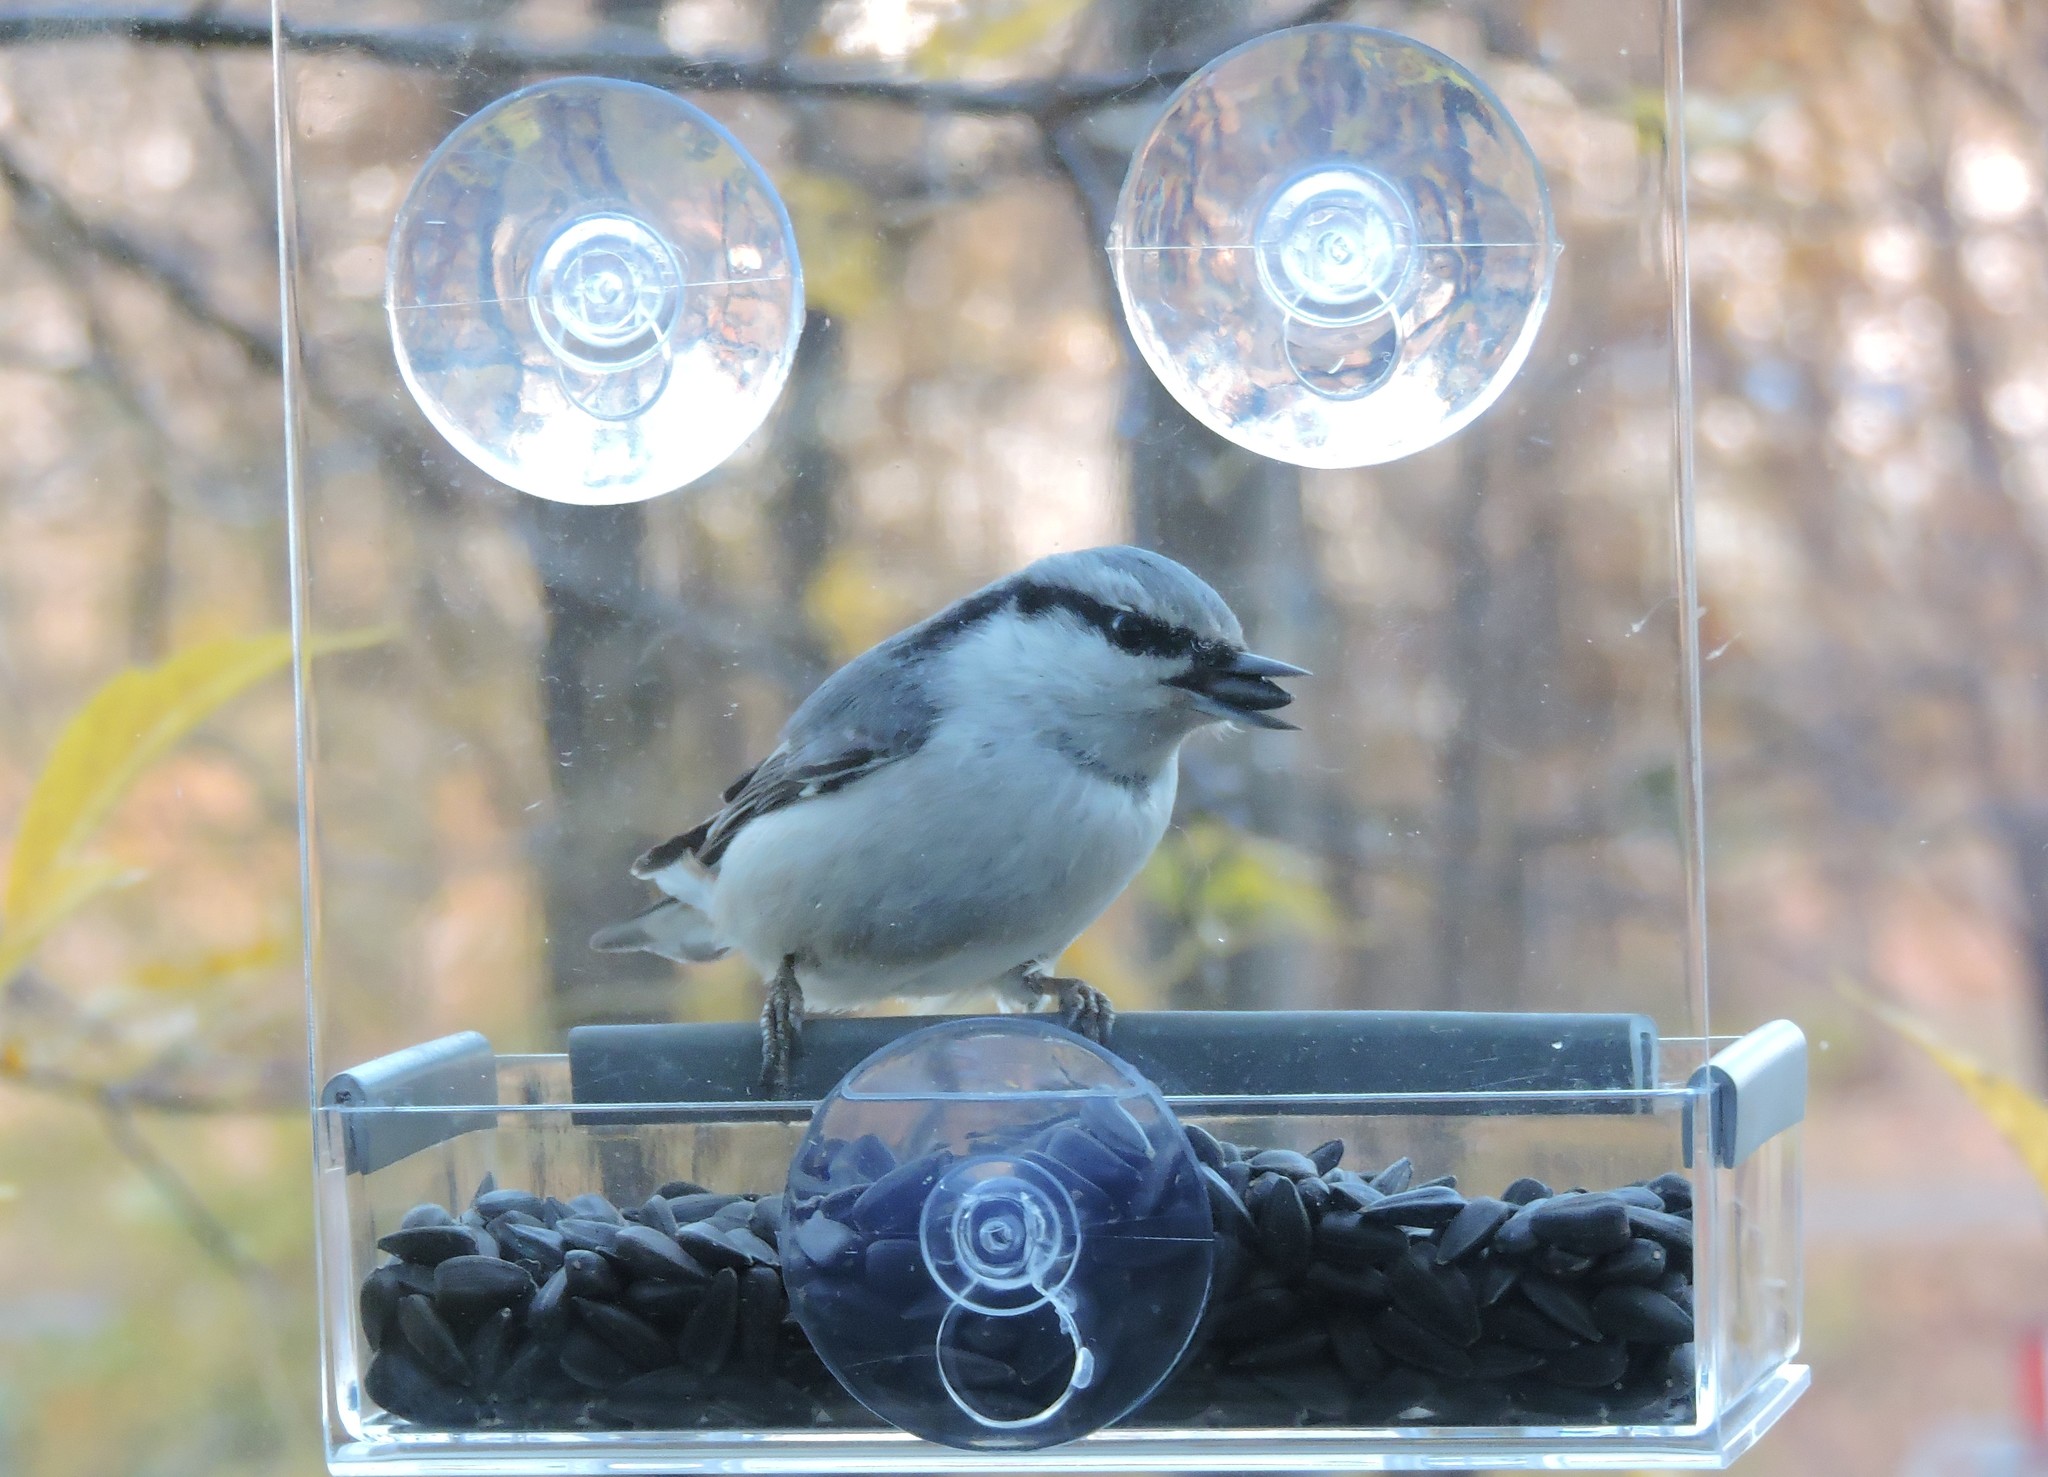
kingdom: Animalia
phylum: Chordata
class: Aves
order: Passeriformes
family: Sittidae
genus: Sitta
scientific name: Sitta europaea
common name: Eurasian nuthatch
